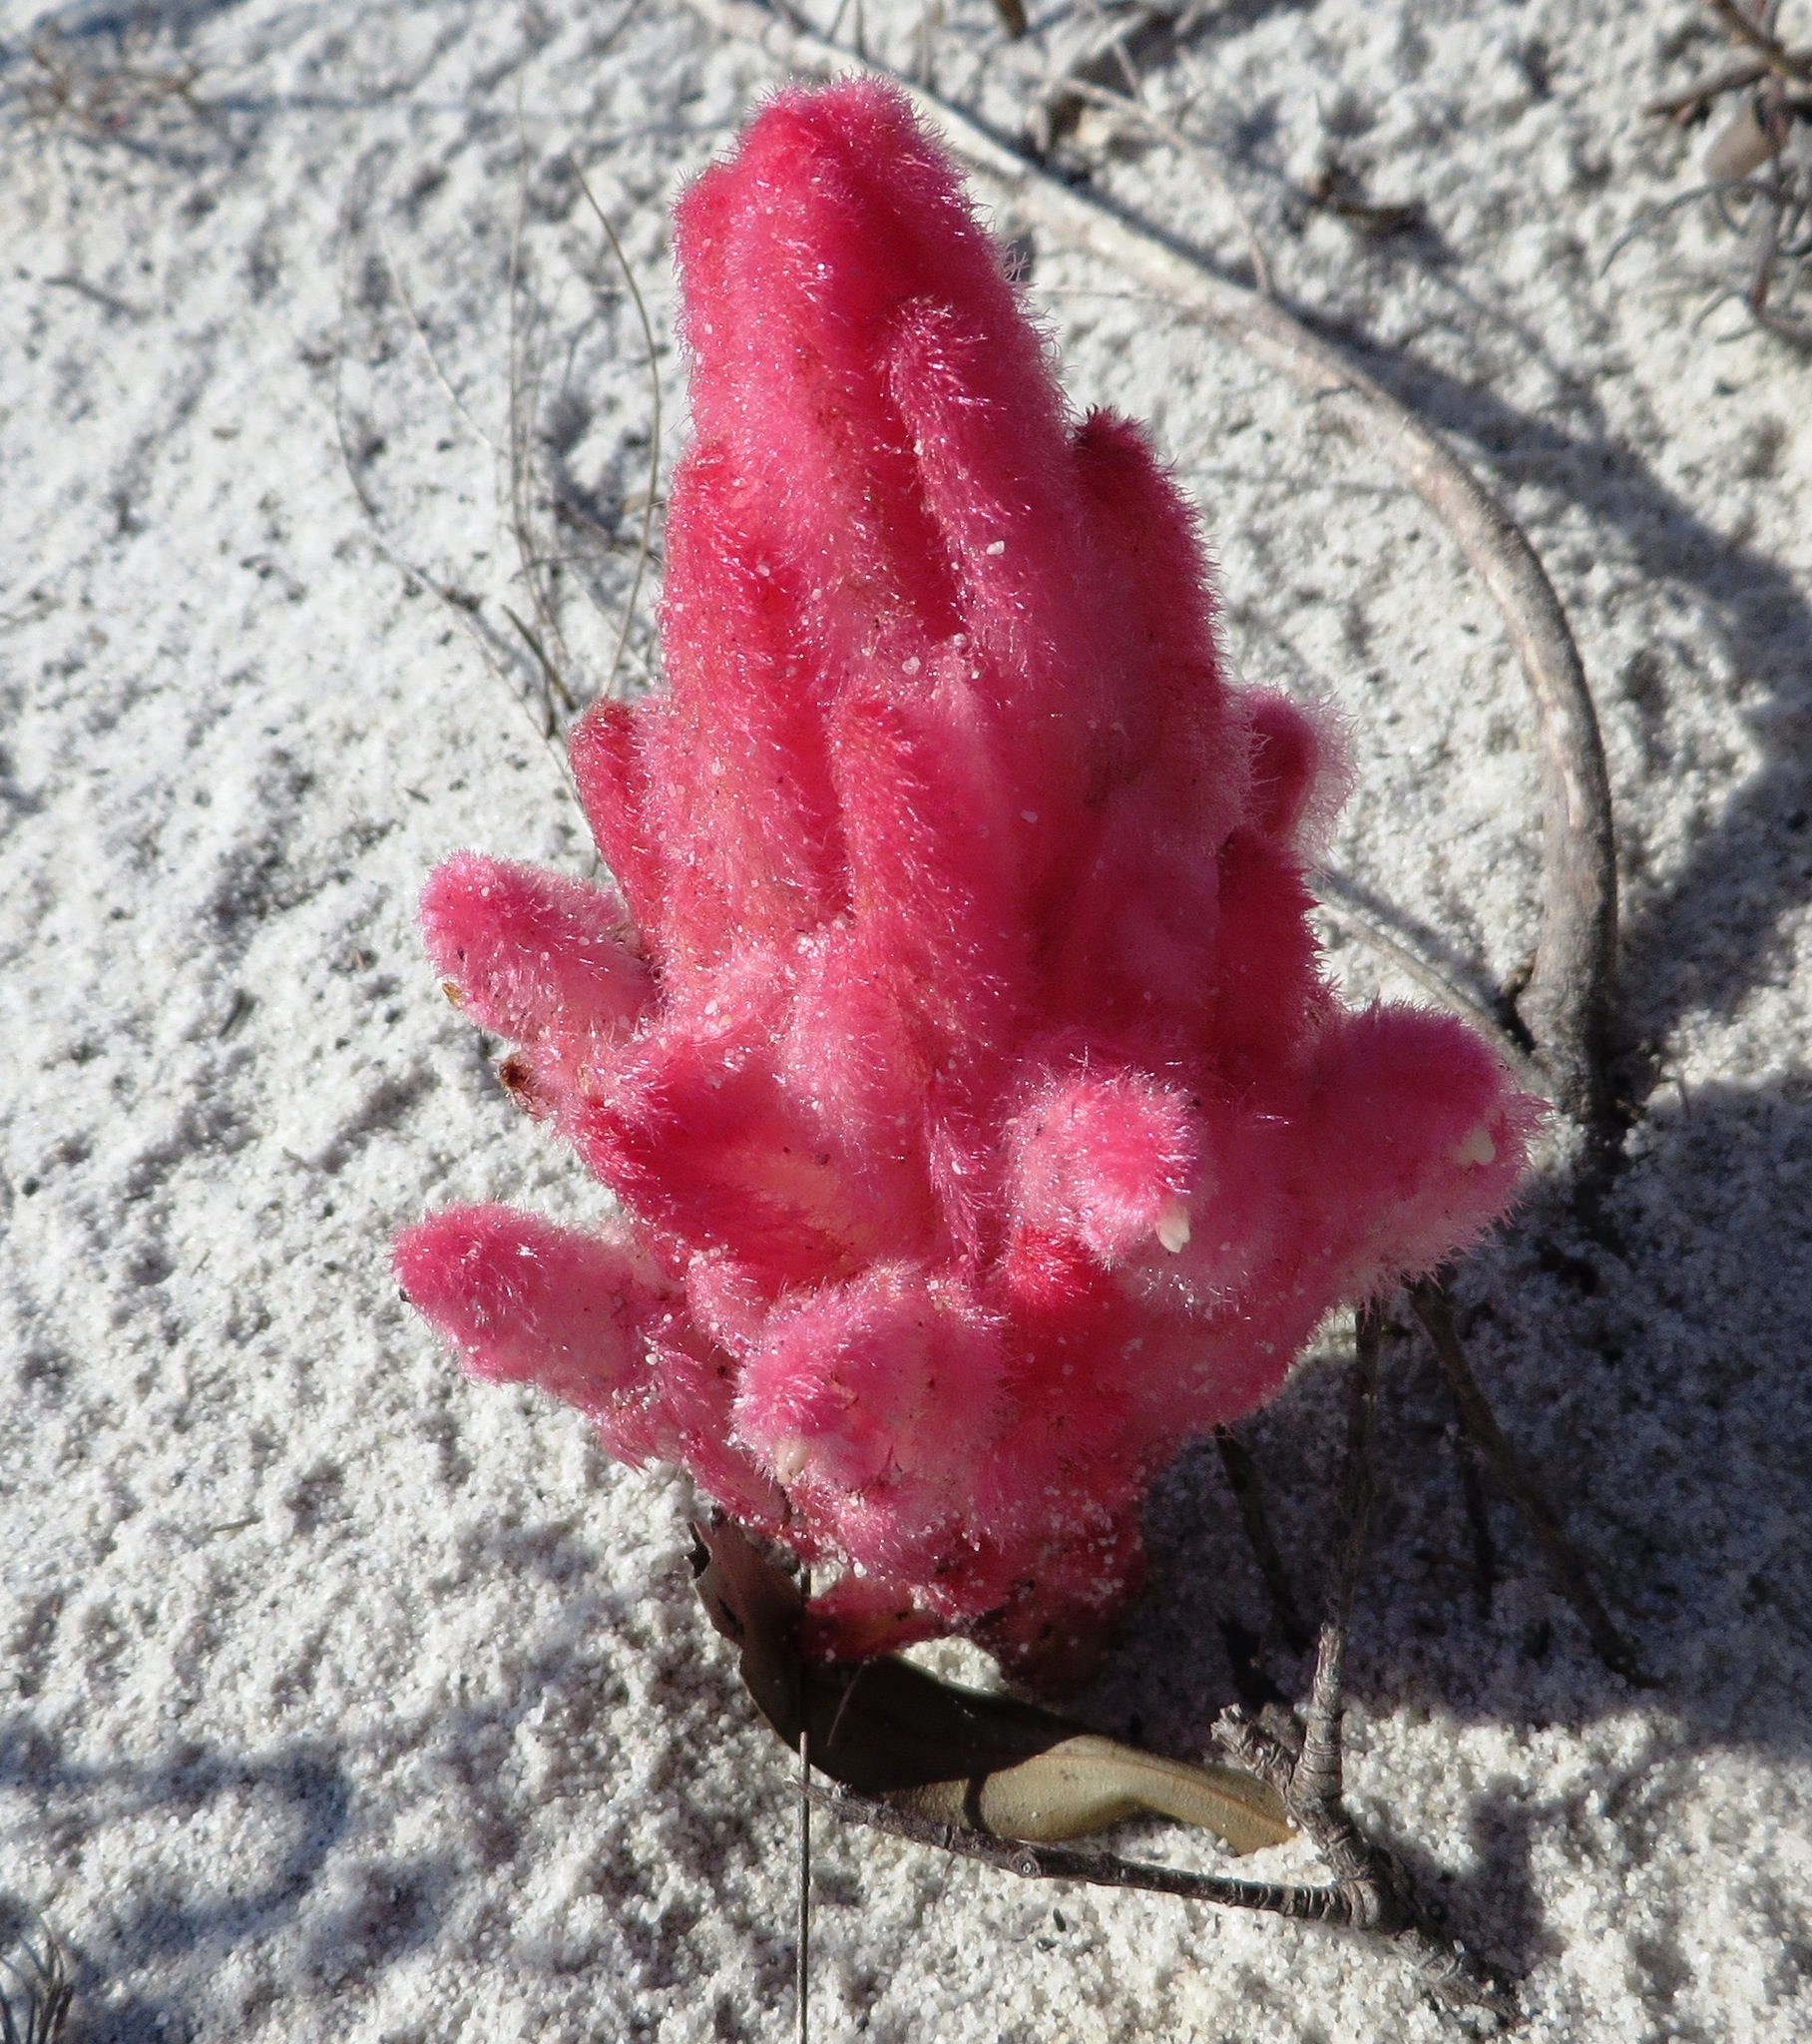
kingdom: Plantae
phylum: Tracheophyta
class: Magnoliopsida
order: Lamiales
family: Orobanchaceae
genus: Hyobanche
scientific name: Hyobanche sanguinea
